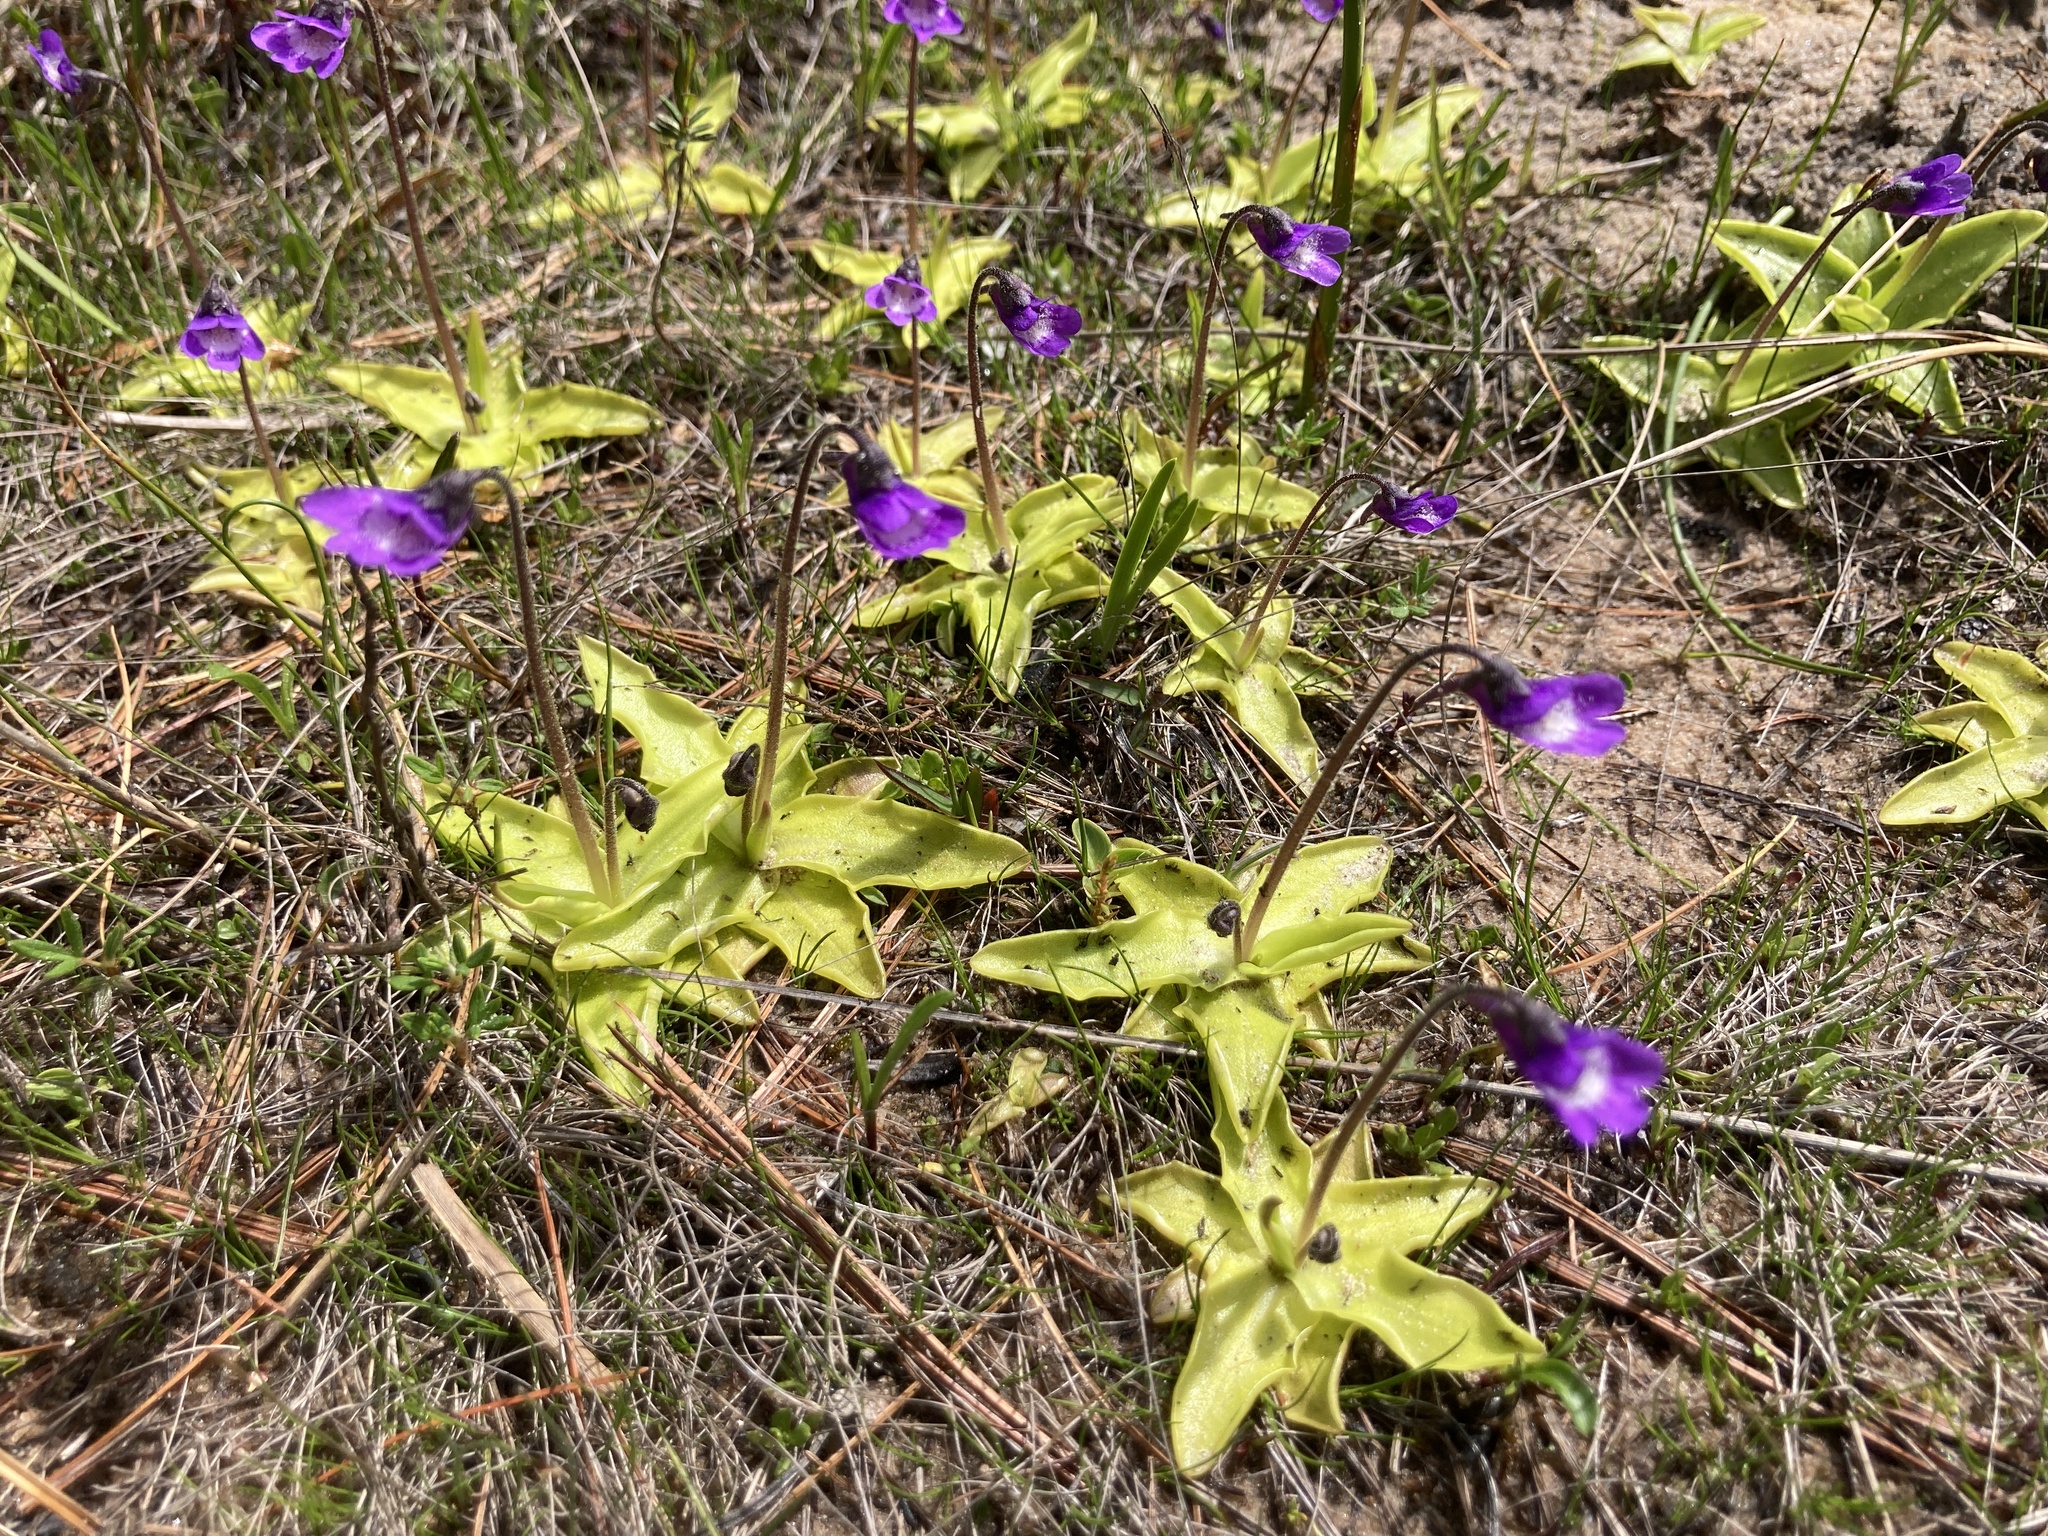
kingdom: Plantae
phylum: Tracheophyta
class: Magnoliopsida
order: Lamiales
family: Lentibulariaceae
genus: Pinguicula
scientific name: Pinguicula vulgaris
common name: Common butterwort
